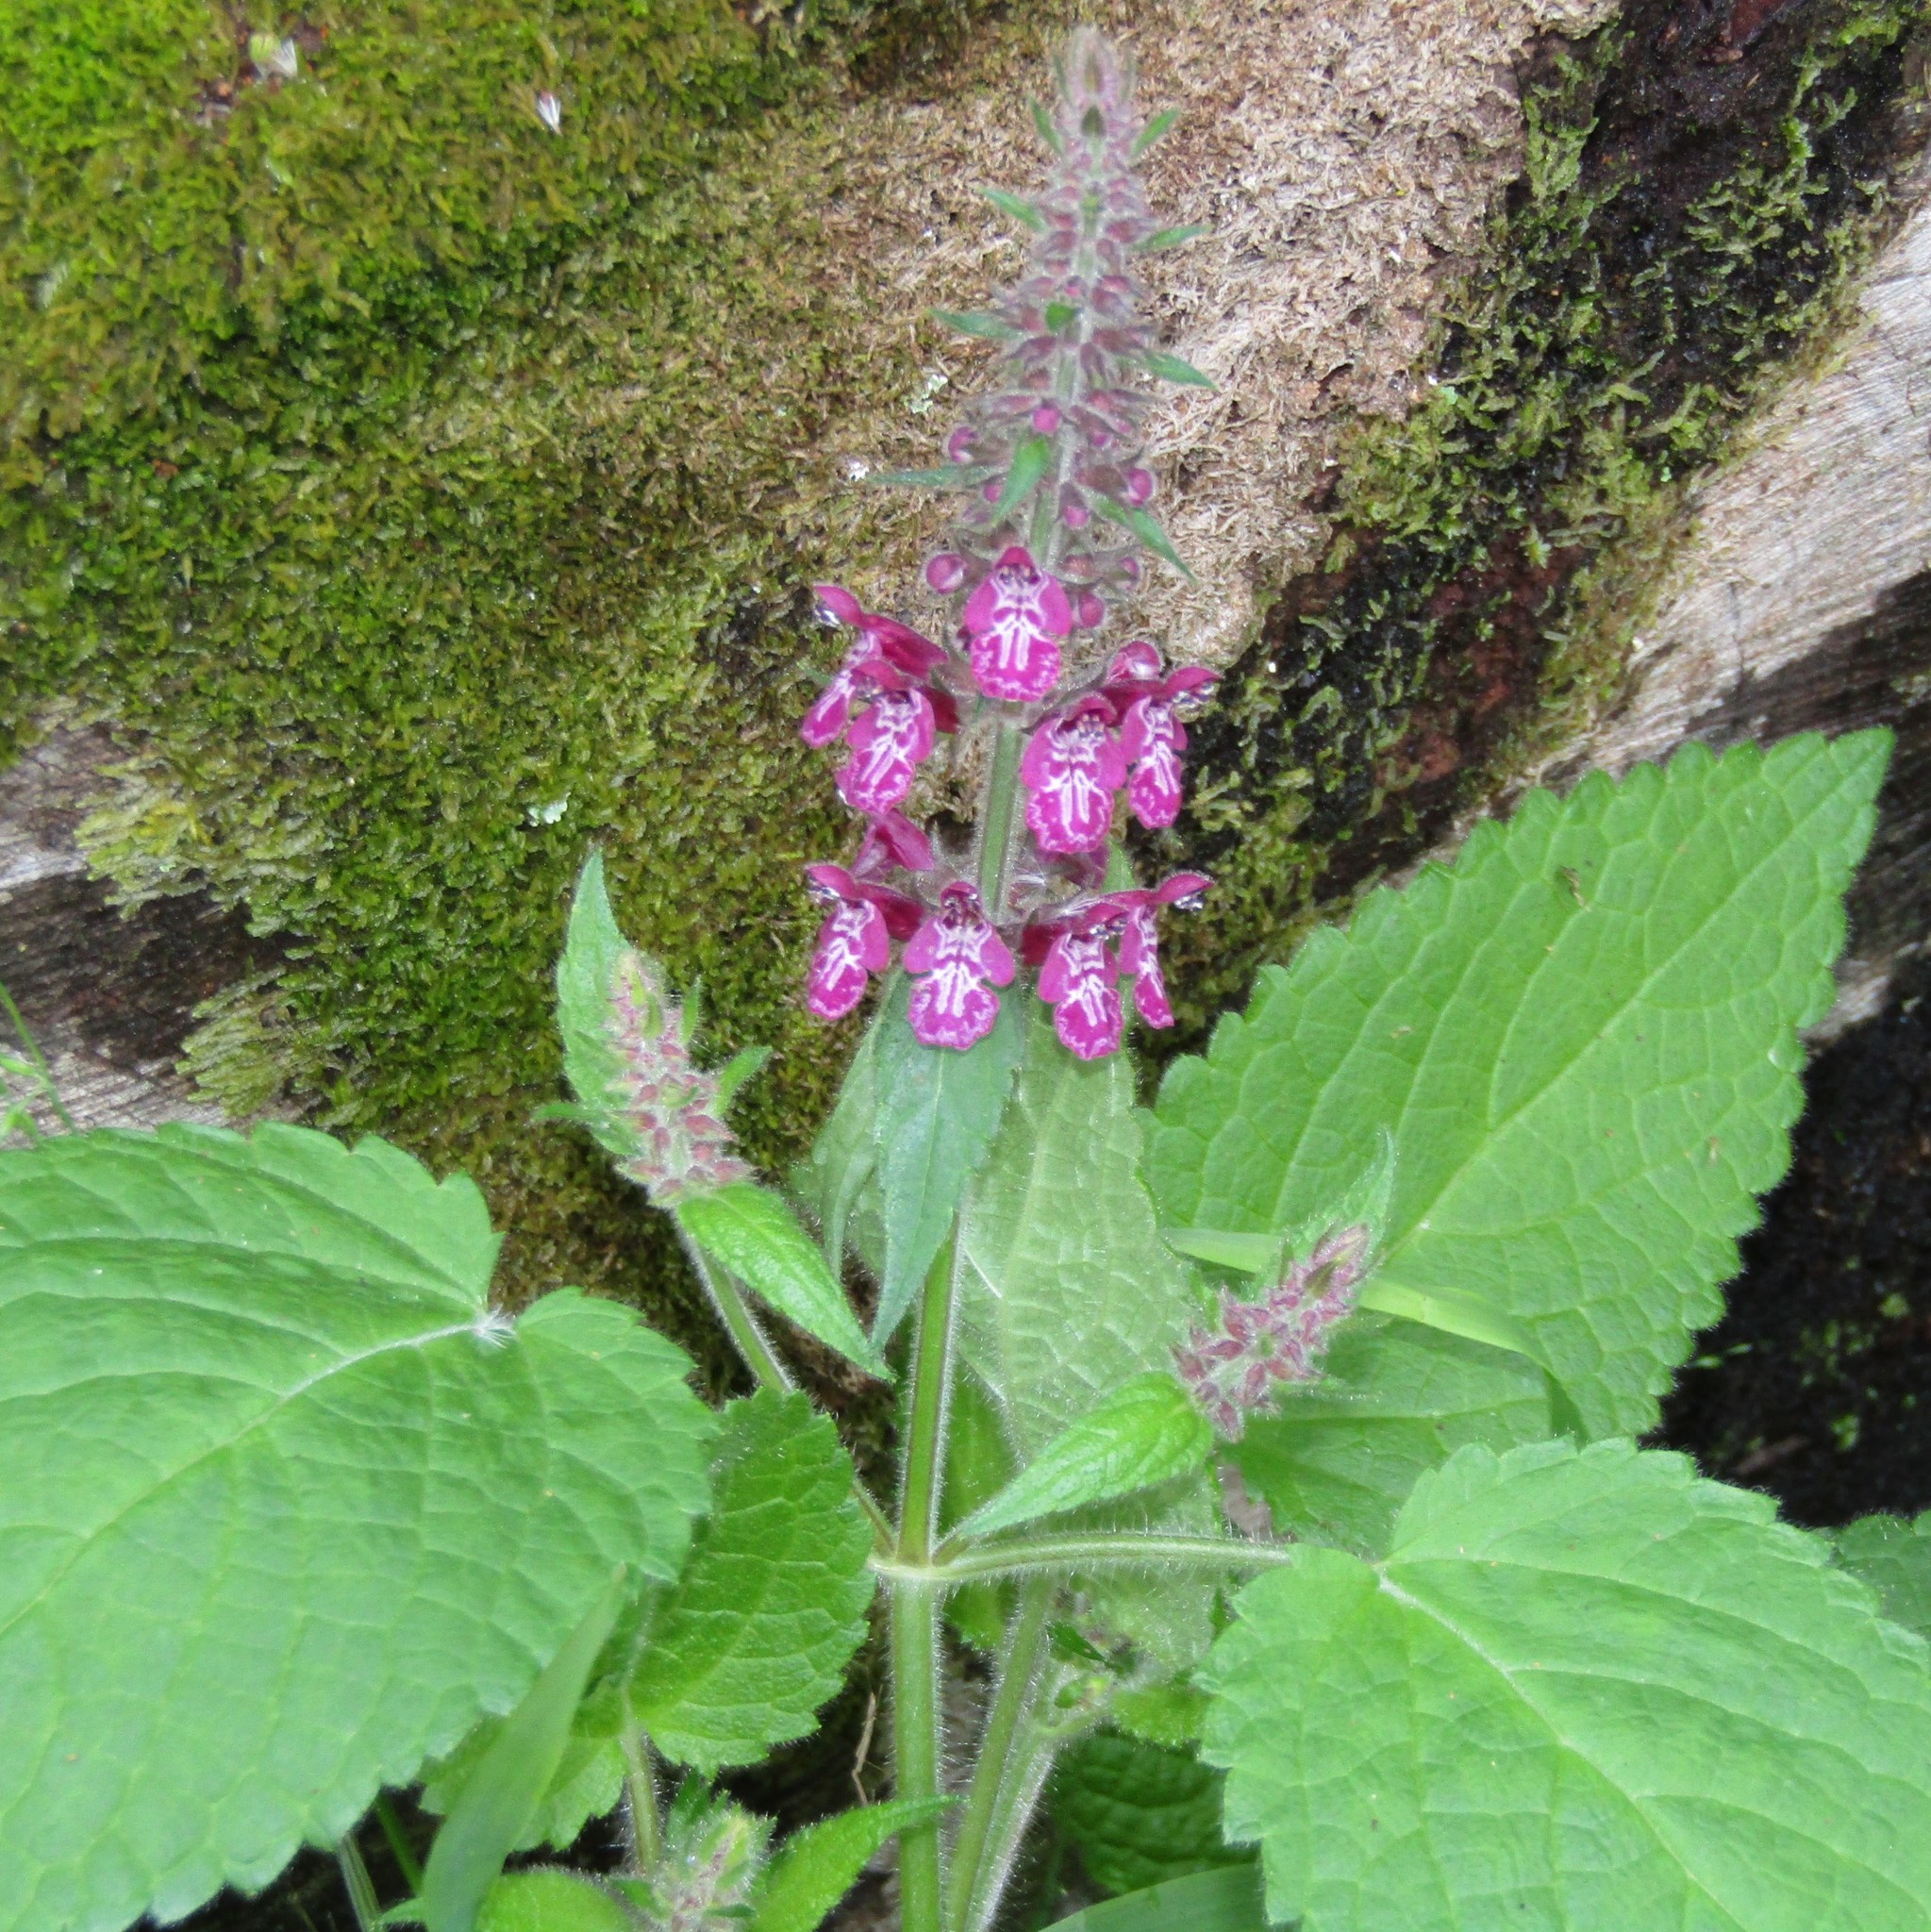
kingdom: Plantae
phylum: Tracheophyta
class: Magnoliopsida
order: Lamiales
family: Lamiaceae
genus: Stachys
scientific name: Stachys sylvatica
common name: Hedge woundwort
